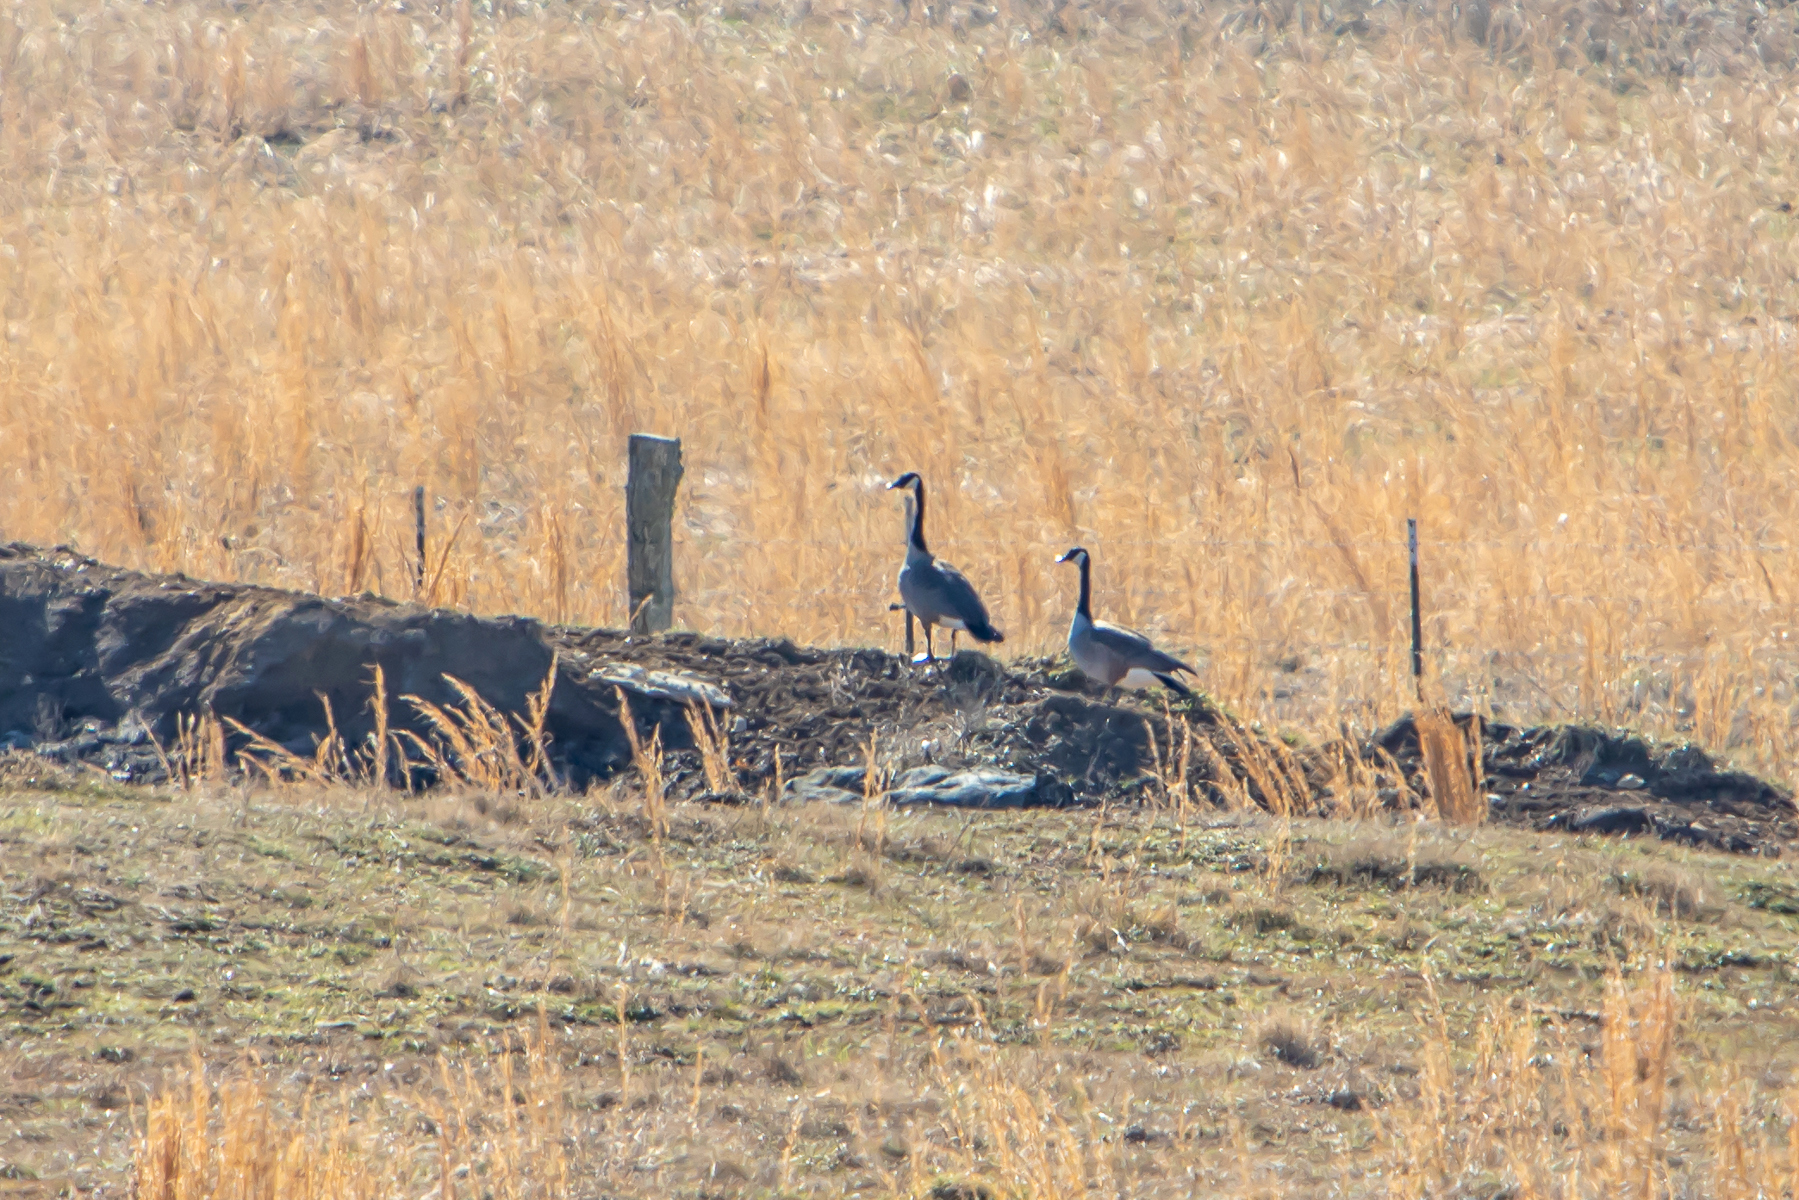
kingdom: Animalia
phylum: Chordata
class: Aves
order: Anseriformes
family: Anatidae
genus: Branta
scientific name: Branta canadensis
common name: Canada goose
